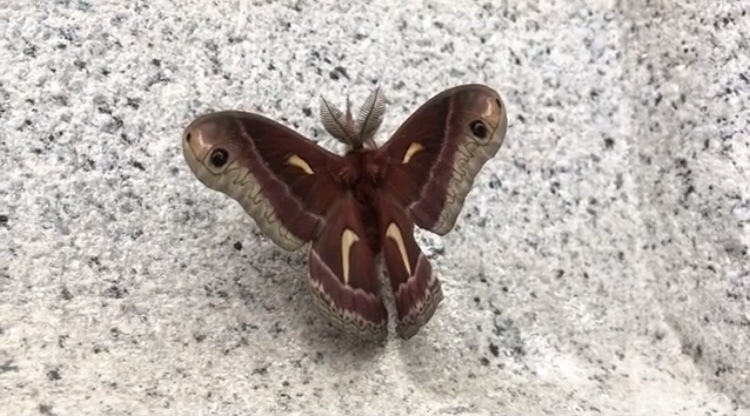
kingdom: Animalia
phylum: Arthropoda
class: Insecta
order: Lepidoptera
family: Saturniidae
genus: Hyalophora
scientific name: Hyalophora euryalus
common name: Ceanothus silkmoth
